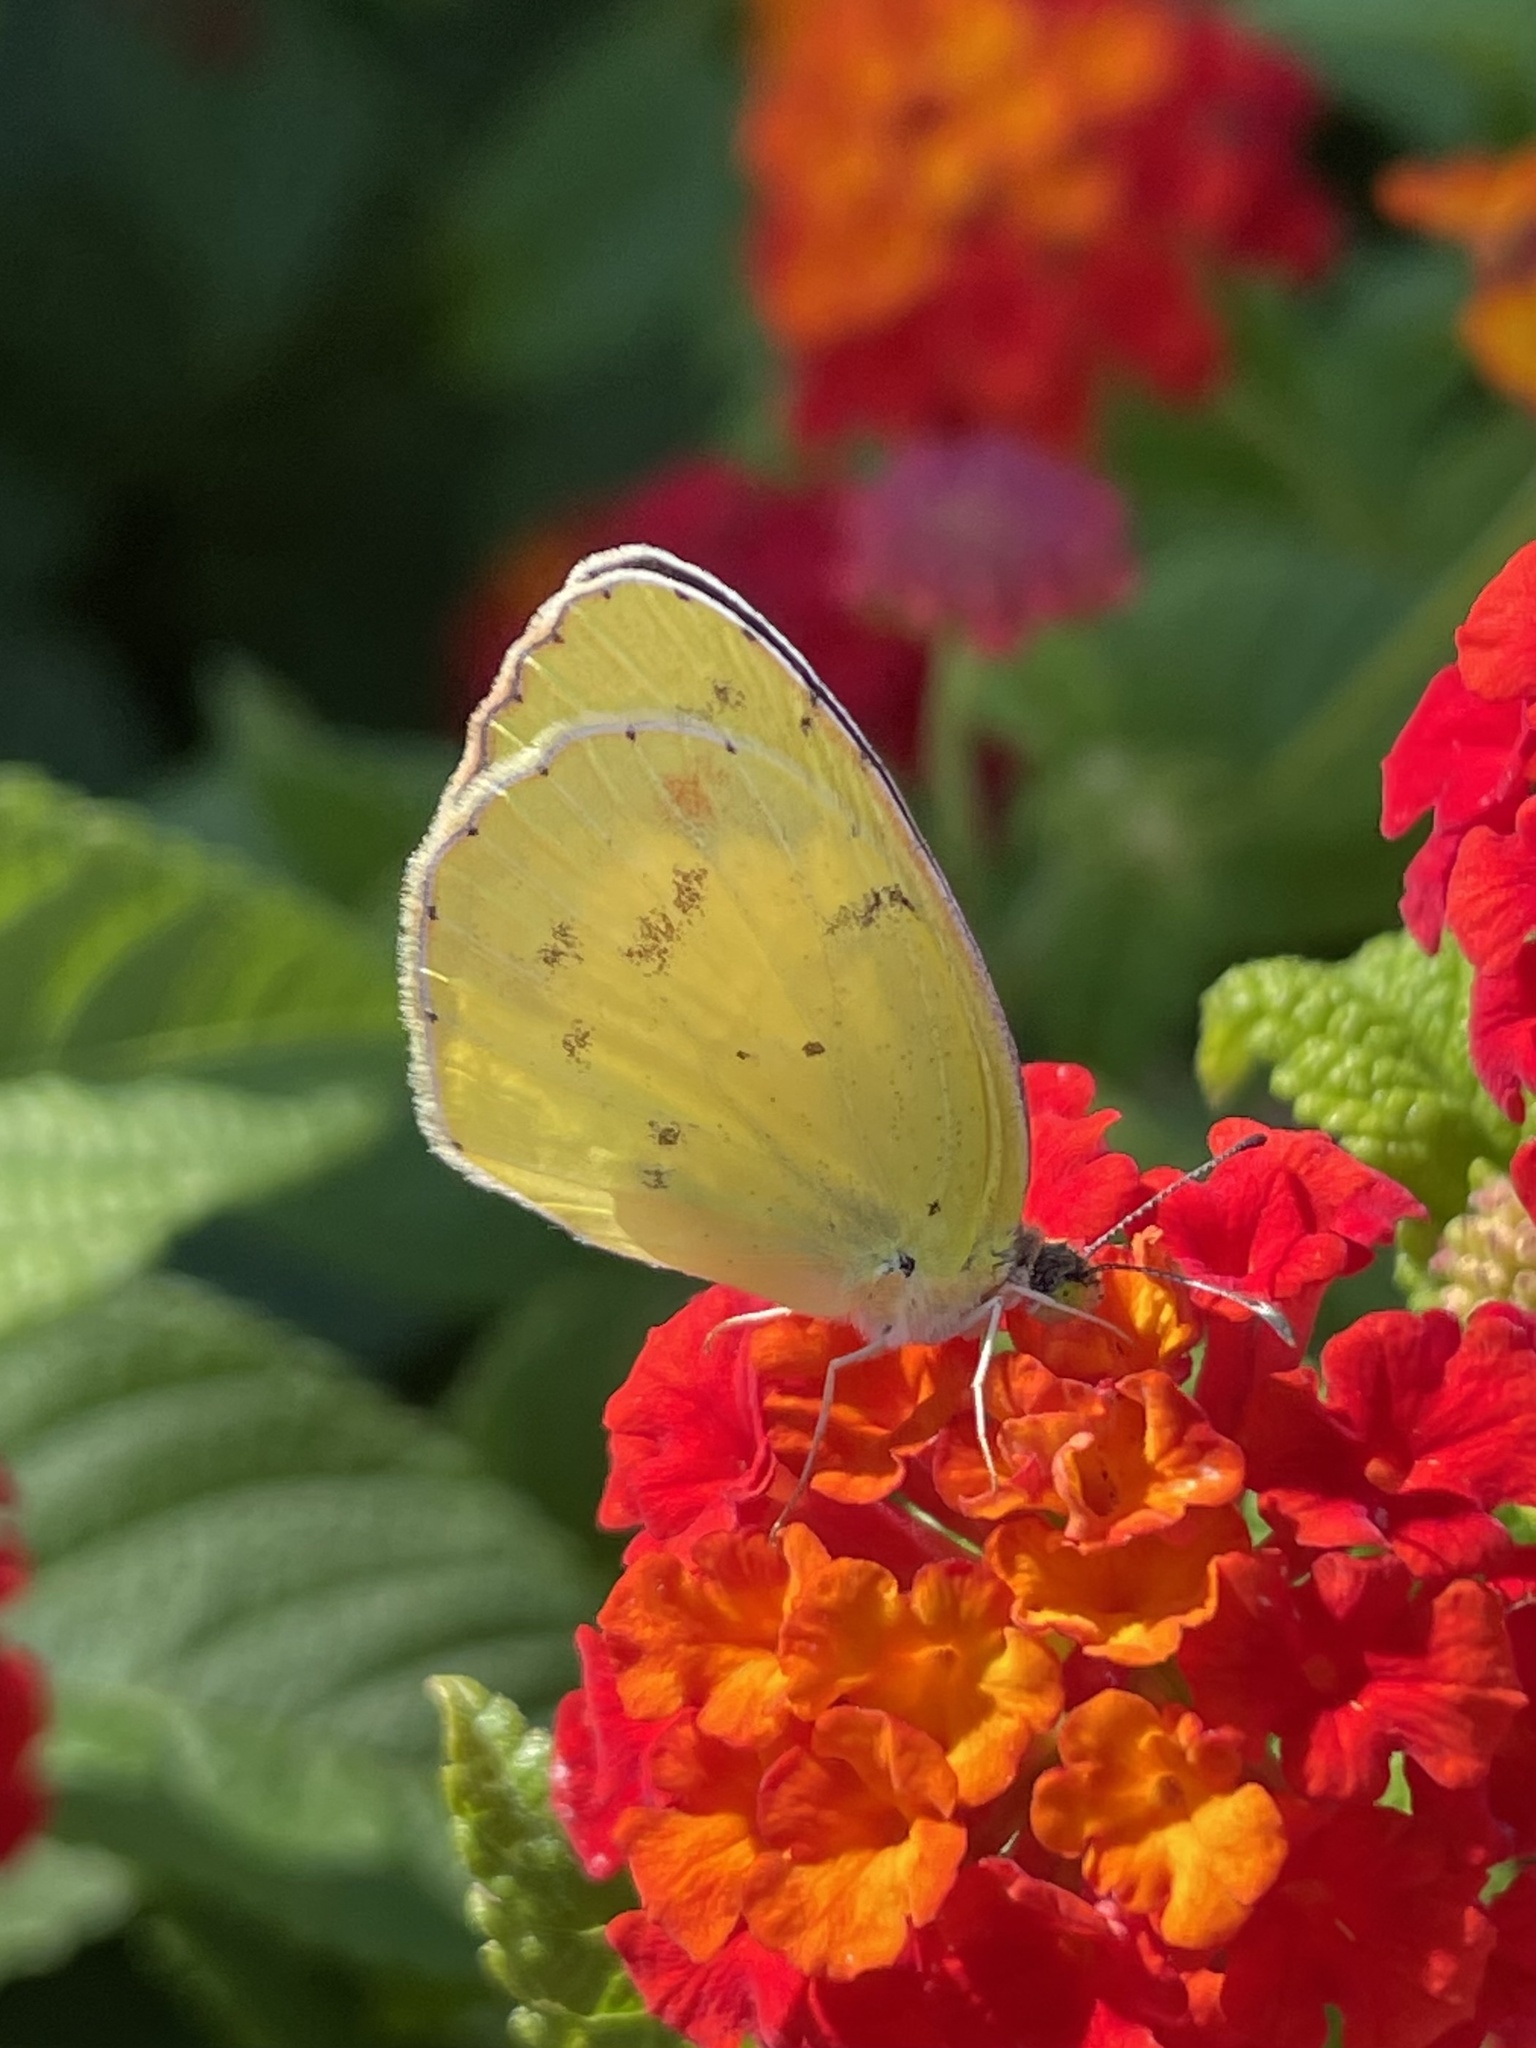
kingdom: Animalia
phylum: Arthropoda
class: Insecta
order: Lepidoptera
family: Pieridae
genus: Pyrisitia
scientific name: Pyrisitia lisa
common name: Little yellow
